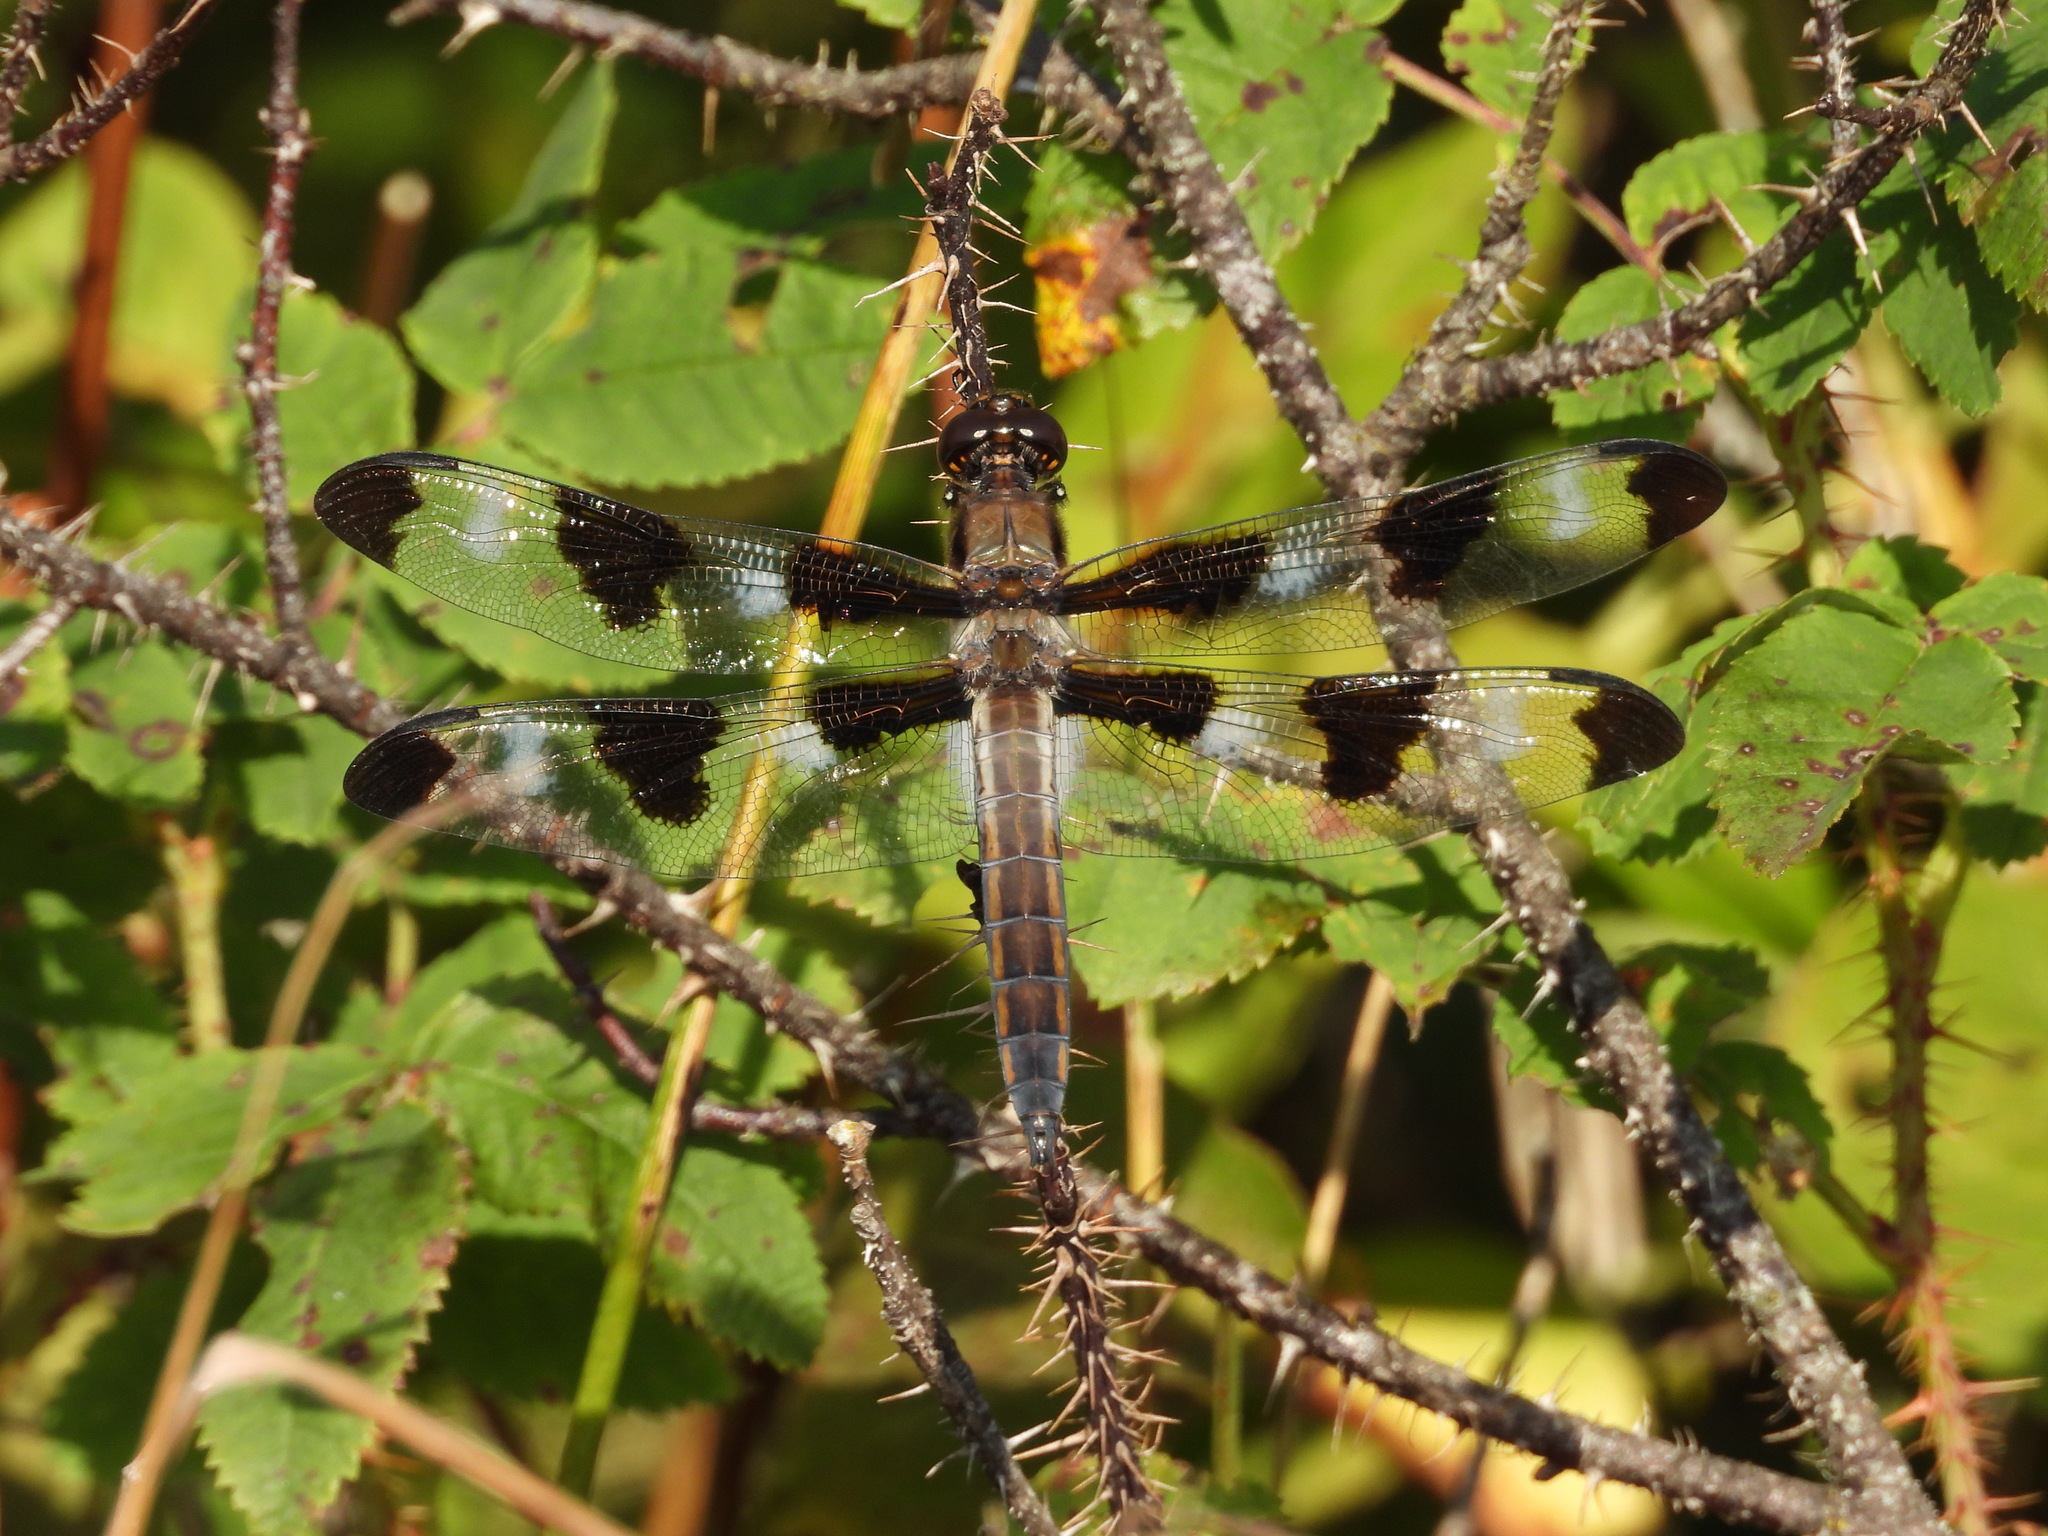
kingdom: Animalia
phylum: Arthropoda
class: Insecta
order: Odonata
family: Libellulidae
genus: Libellula
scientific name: Libellula pulchella
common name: Twelve-spotted skimmer
